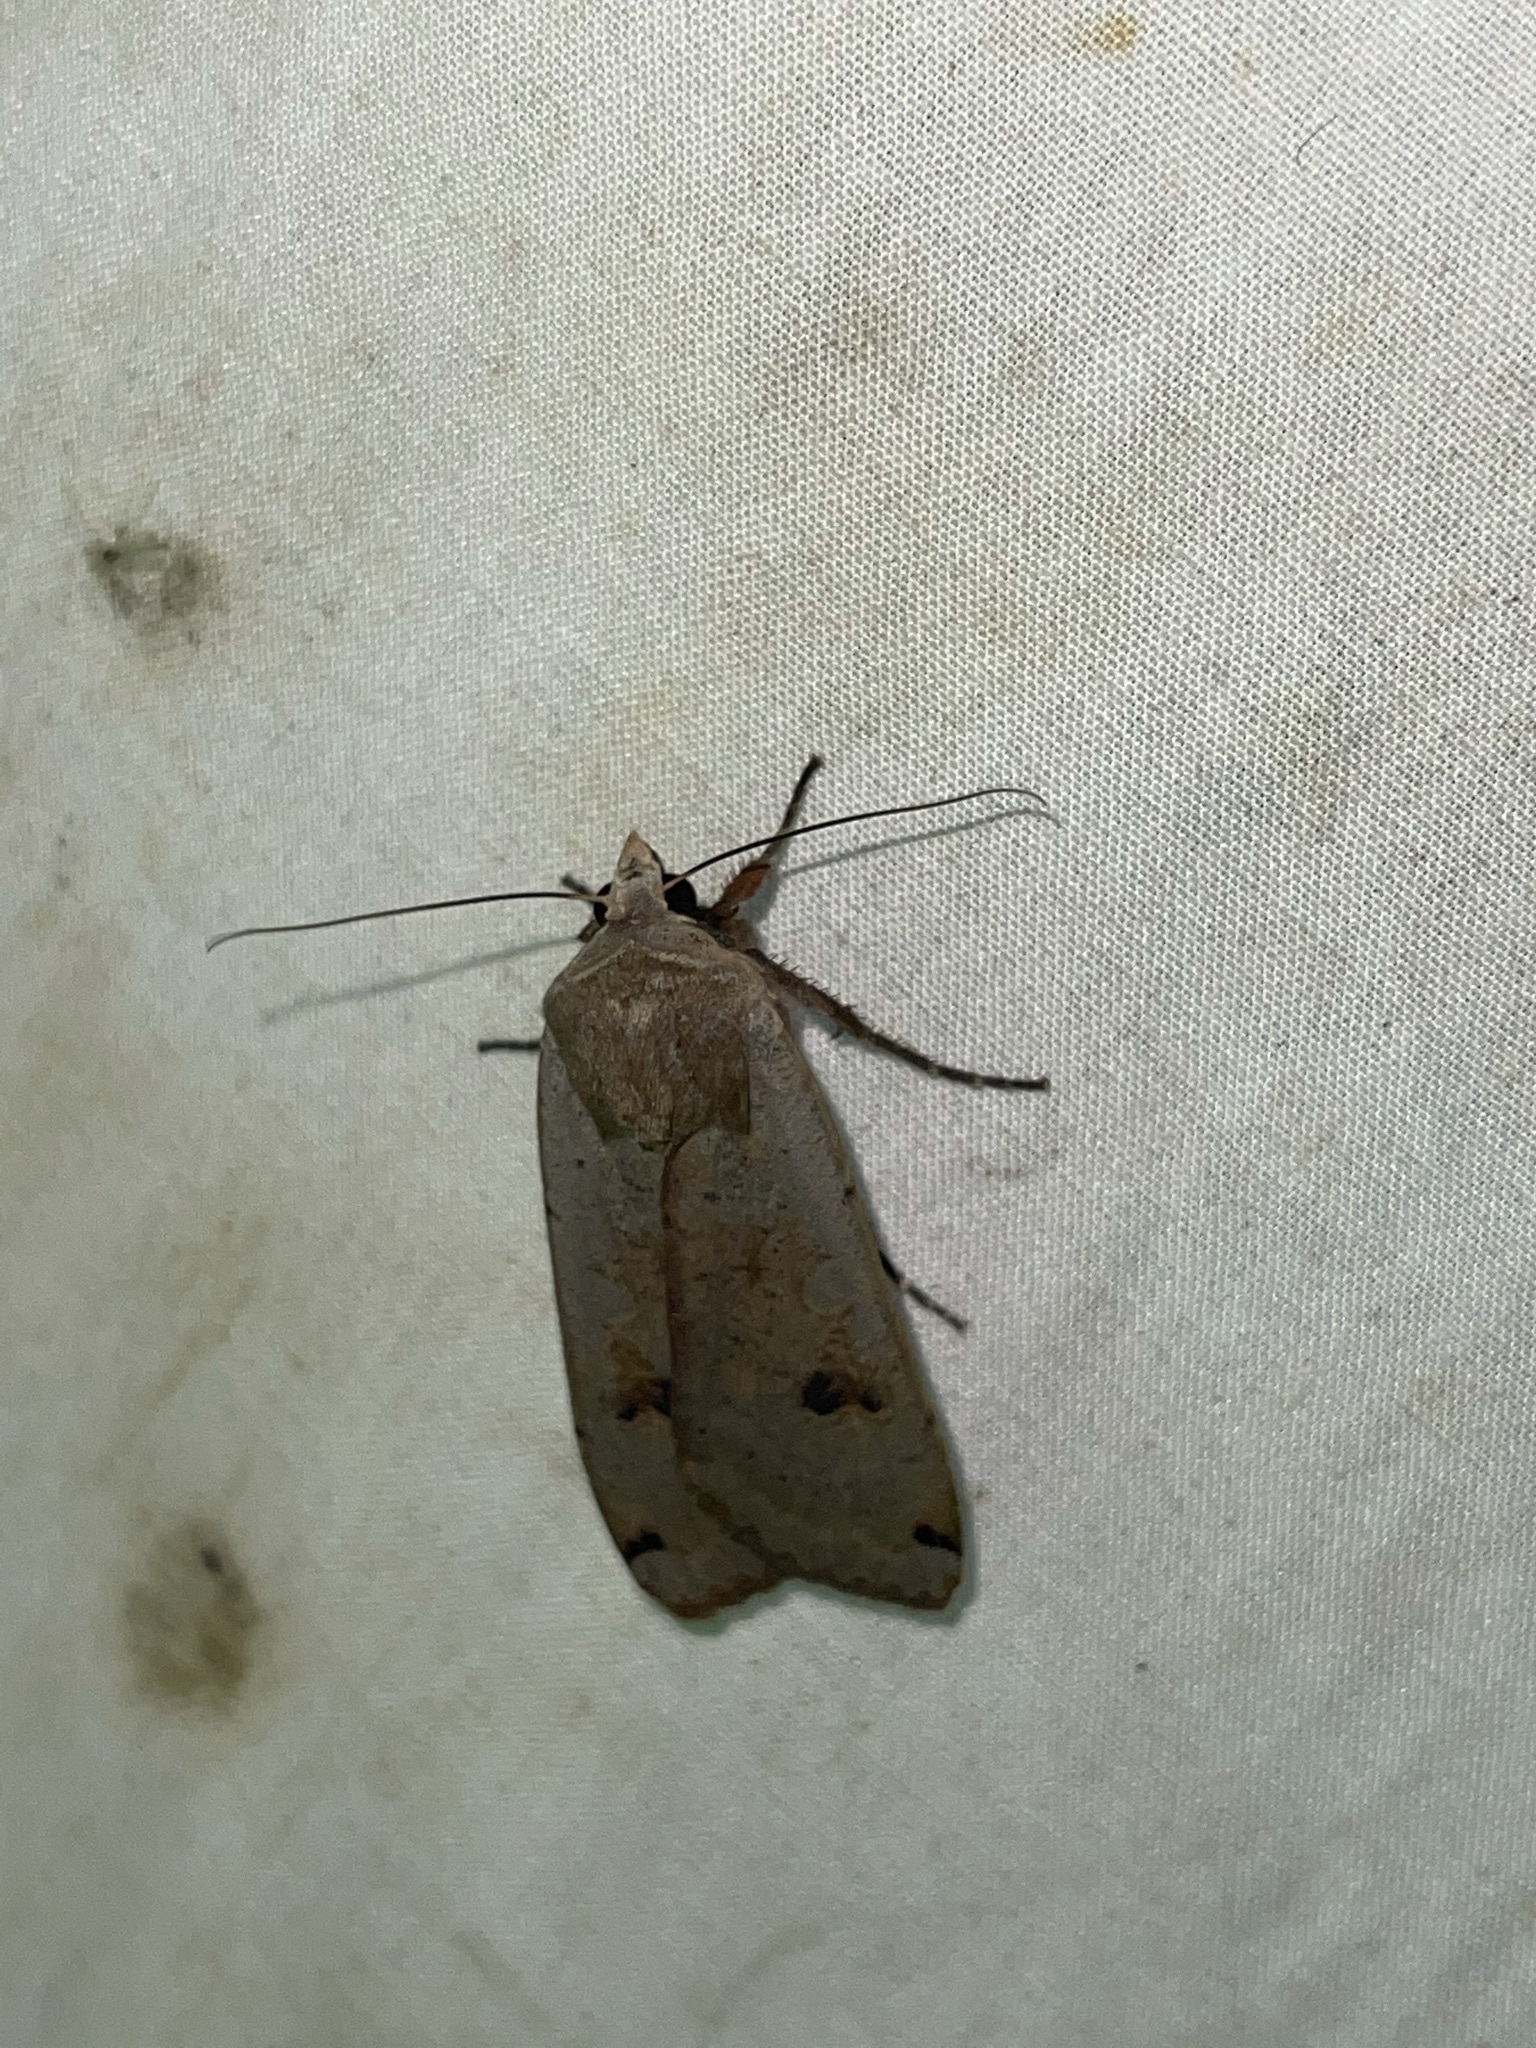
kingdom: Animalia
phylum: Arthropoda
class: Insecta
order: Lepidoptera
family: Noctuidae
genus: Noctua
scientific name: Noctua pronuba
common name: Large yellow underwing
